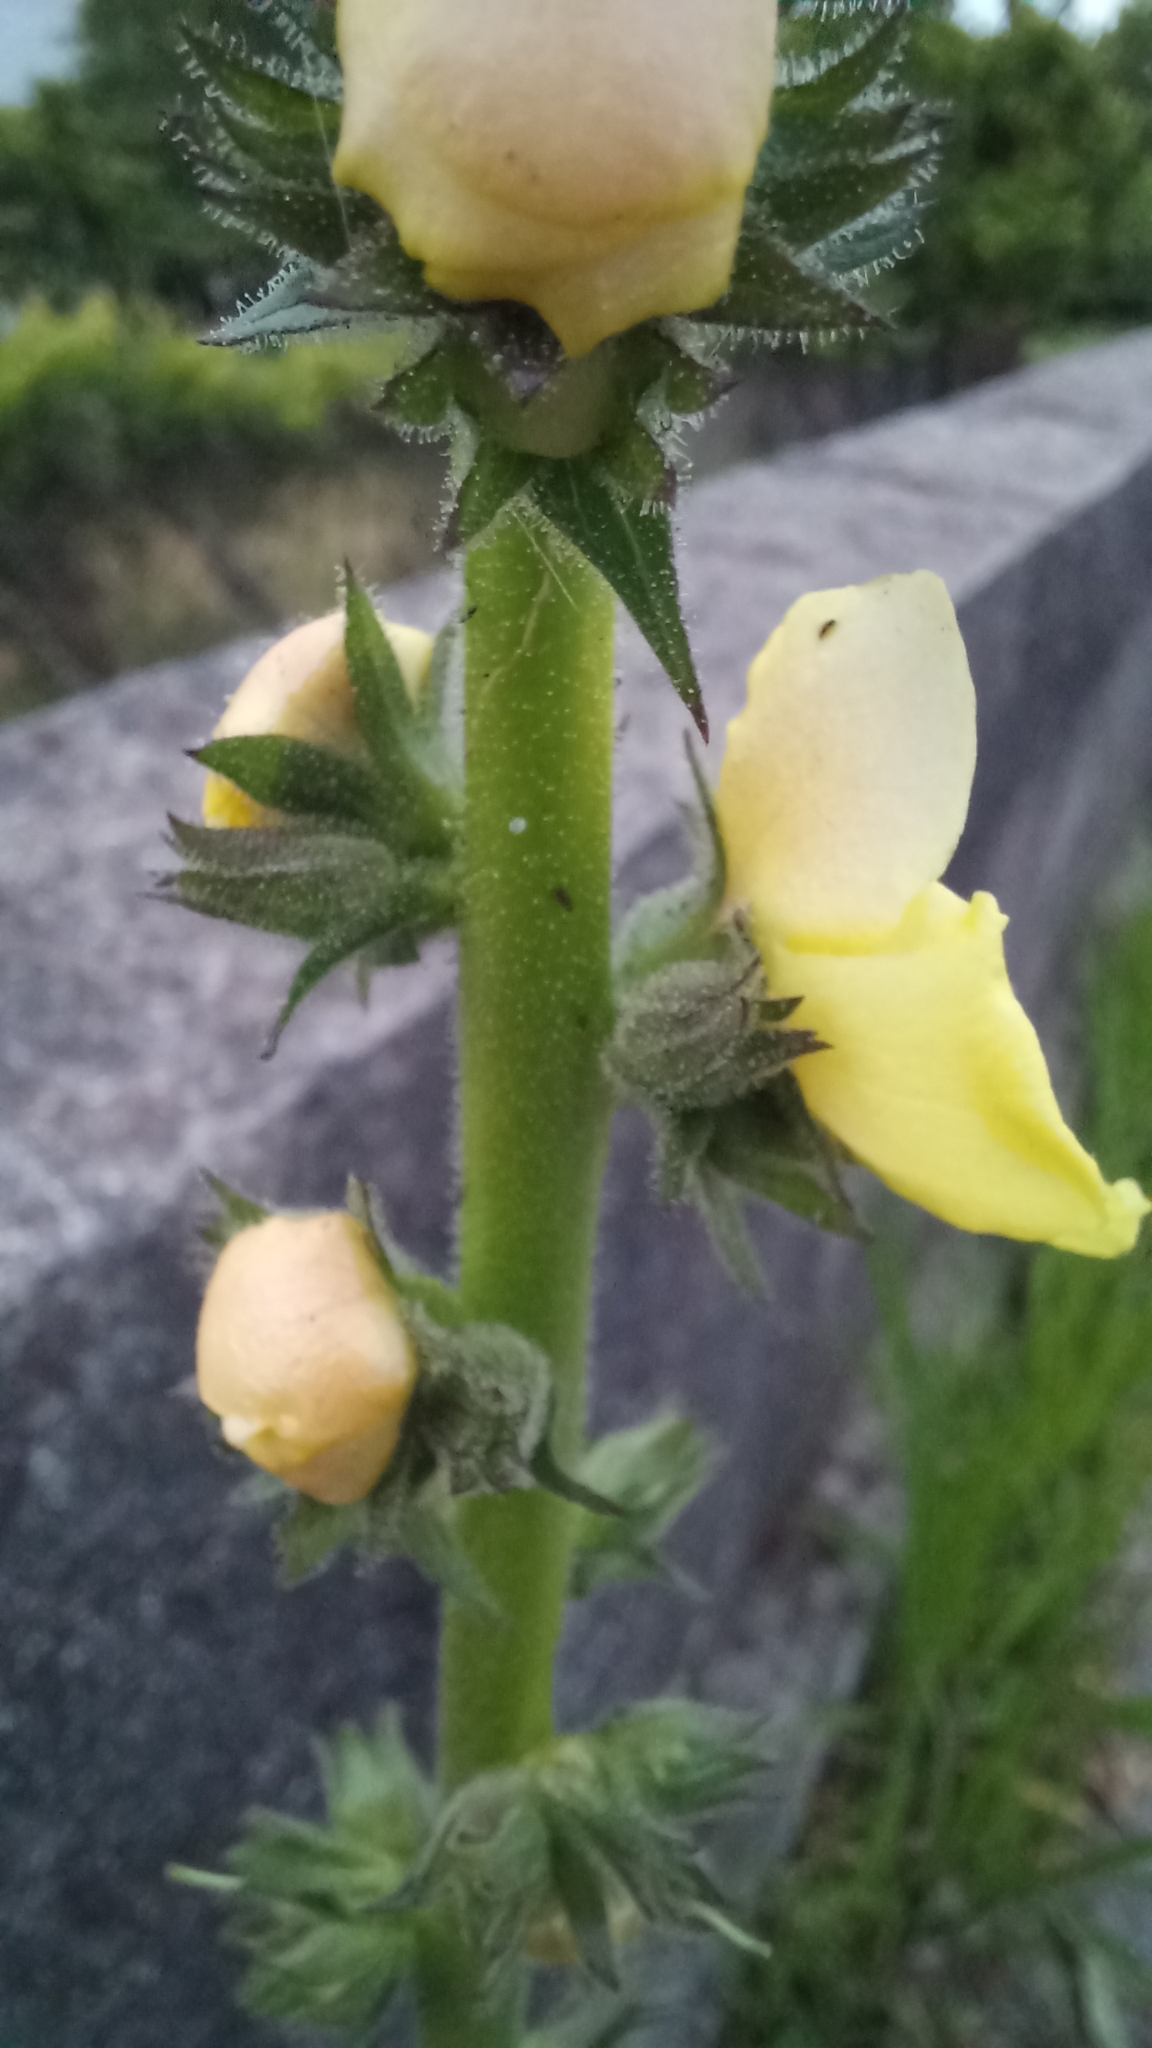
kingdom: Plantae
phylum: Tracheophyta
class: Magnoliopsida
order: Lamiales
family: Scrophulariaceae
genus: Verbascum
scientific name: Verbascum virgatum
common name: Twiggy mullein
